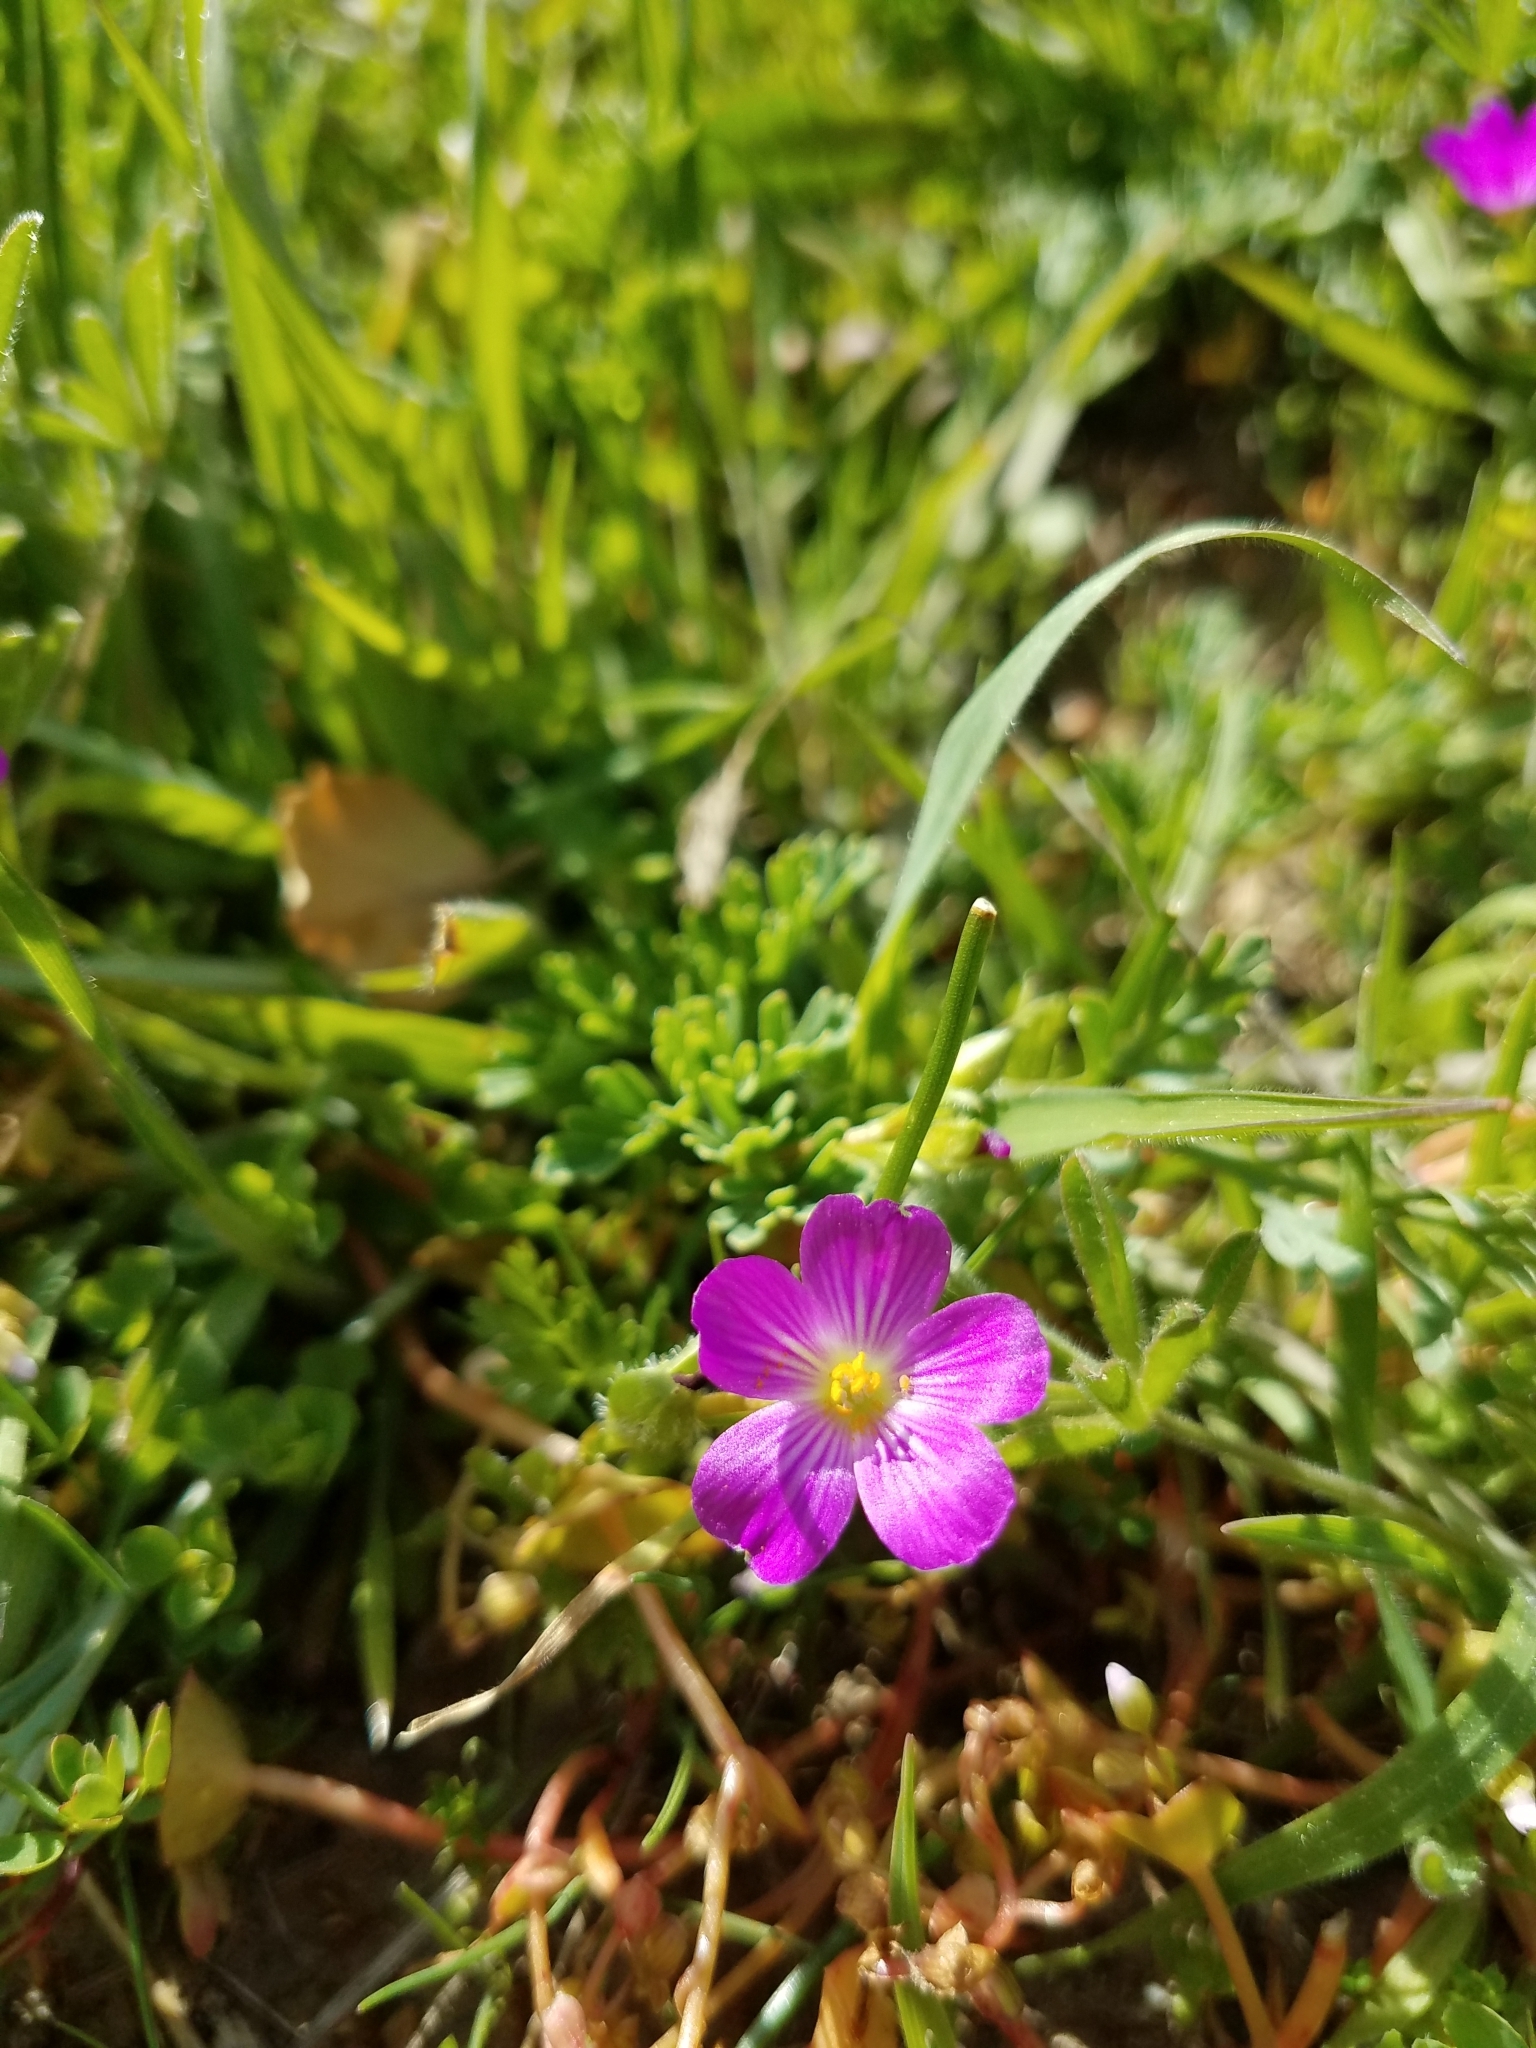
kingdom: Plantae
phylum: Tracheophyta
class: Magnoliopsida
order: Caryophyllales
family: Montiaceae
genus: Calandrinia
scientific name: Calandrinia menziesii
